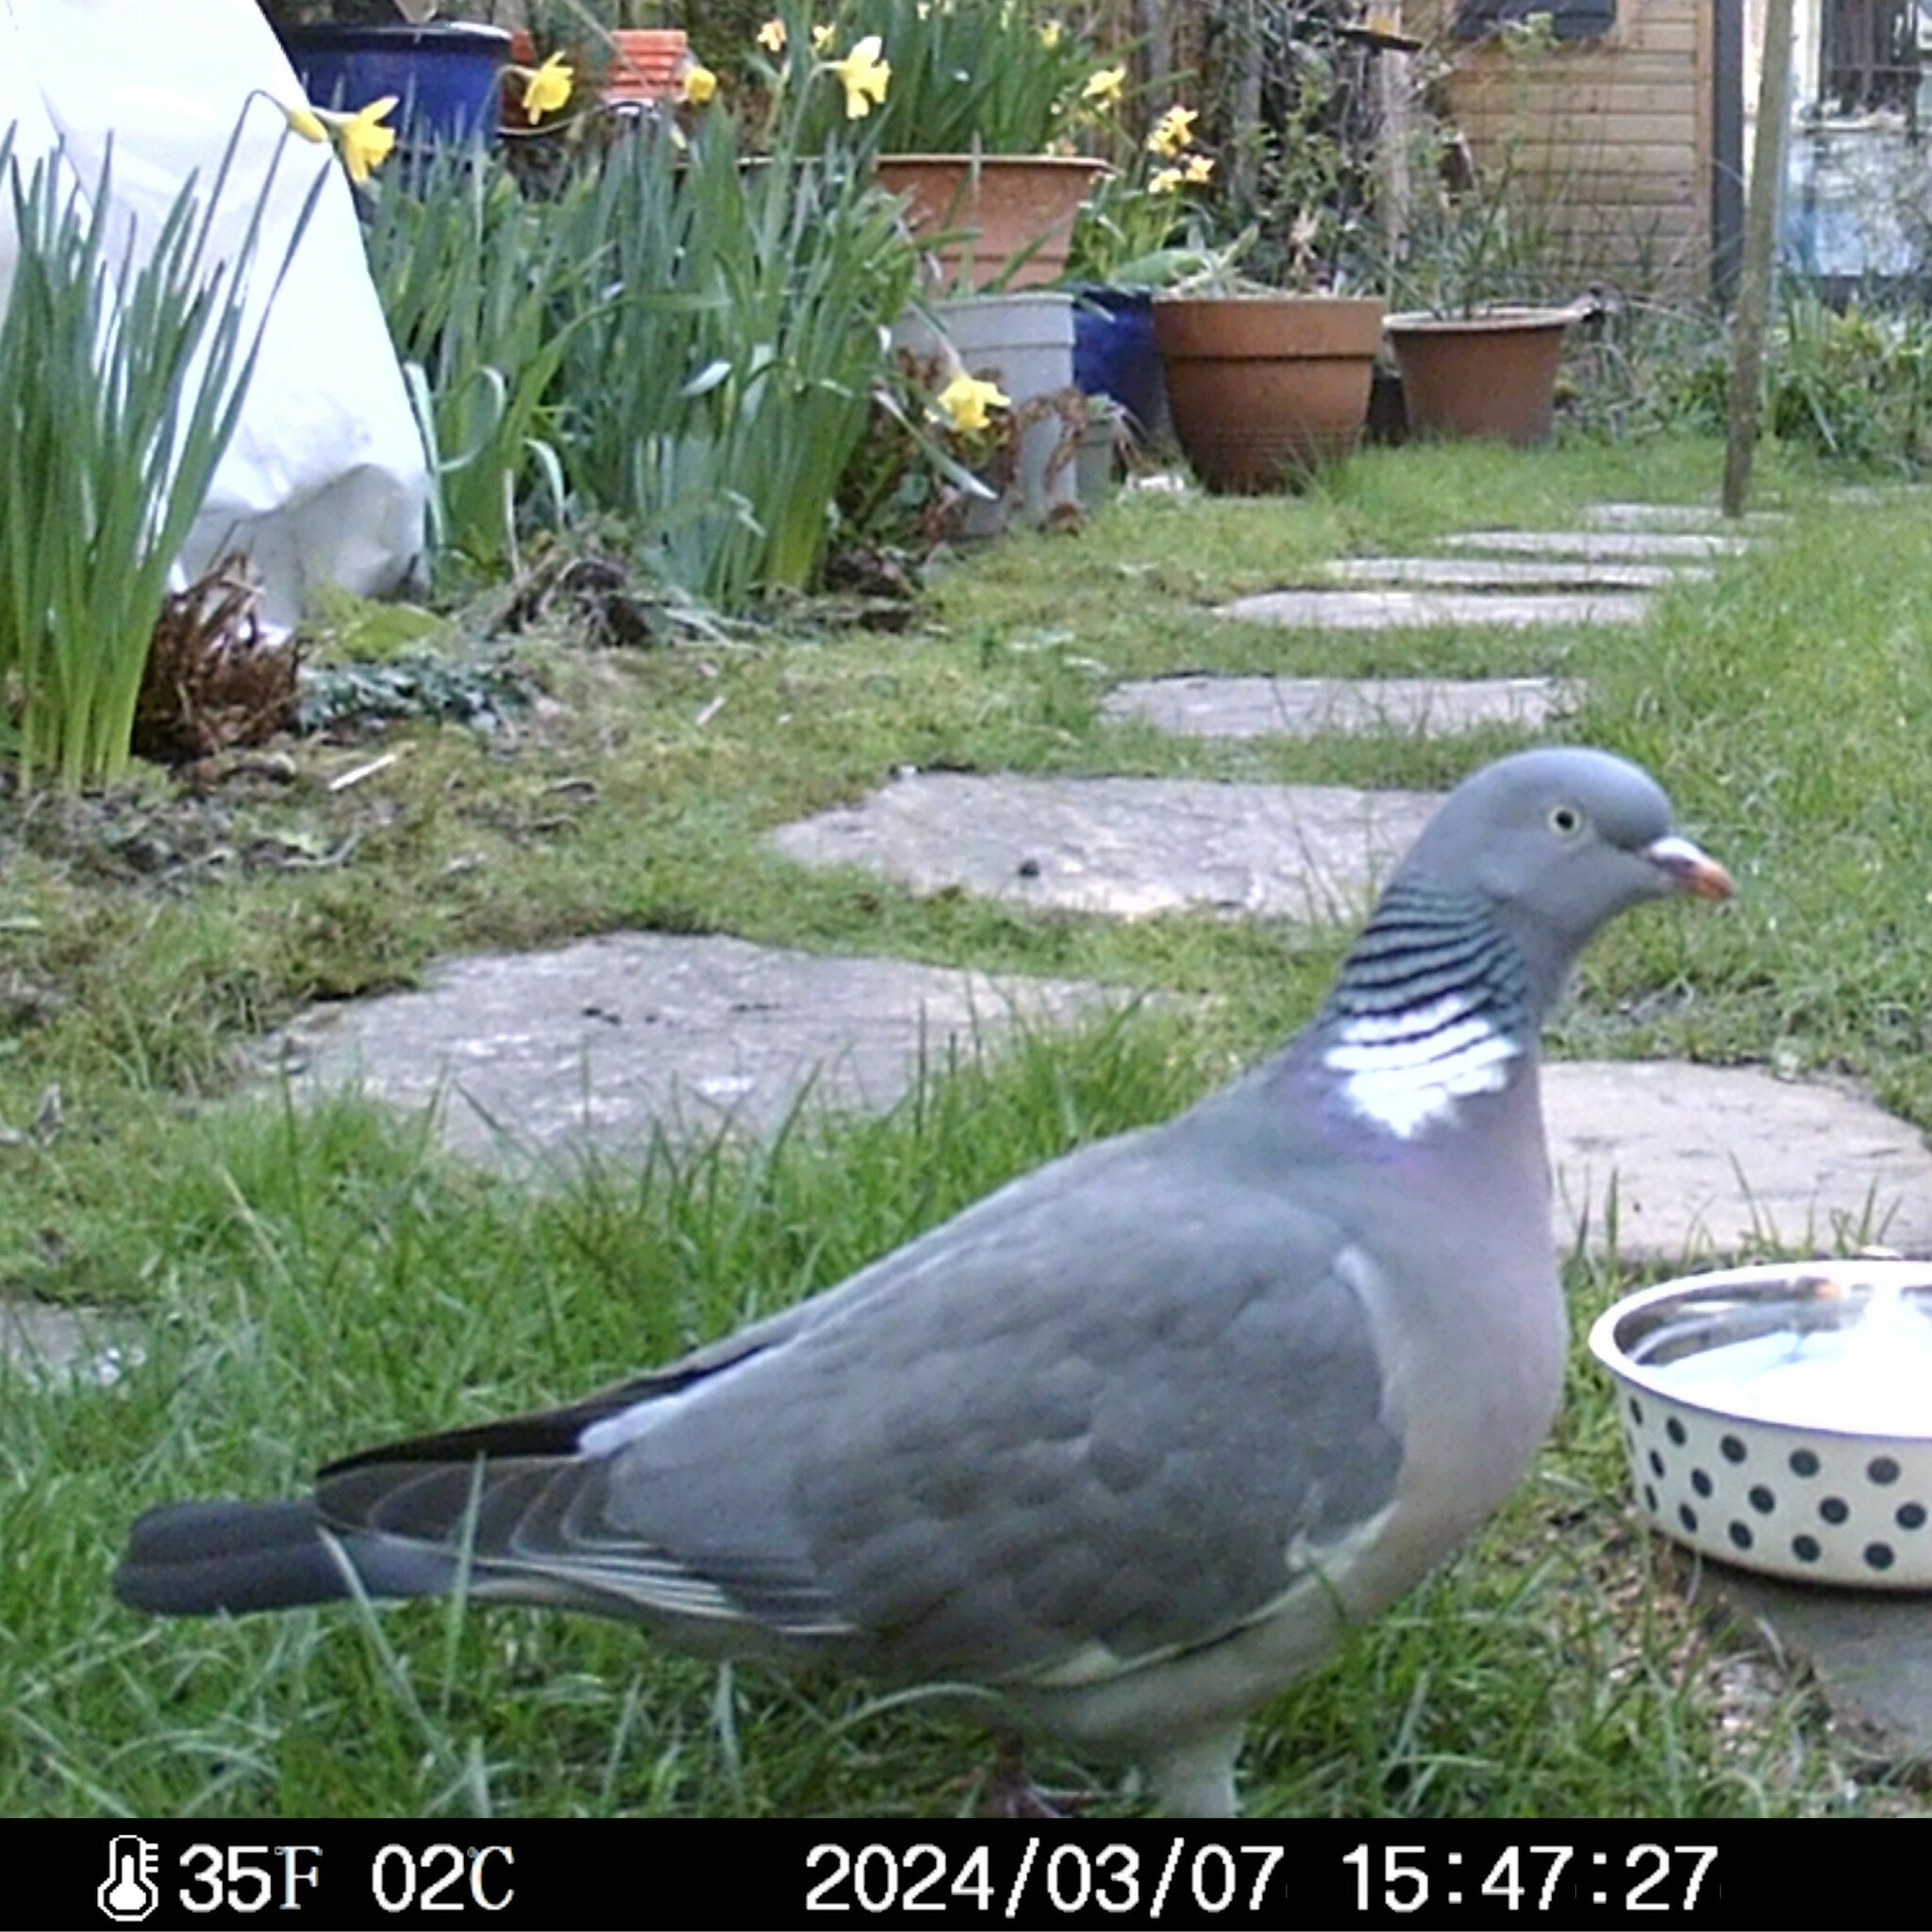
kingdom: Animalia
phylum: Chordata
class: Aves
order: Columbiformes
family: Columbidae
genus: Columba
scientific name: Columba palumbus
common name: Common wood pigeon
